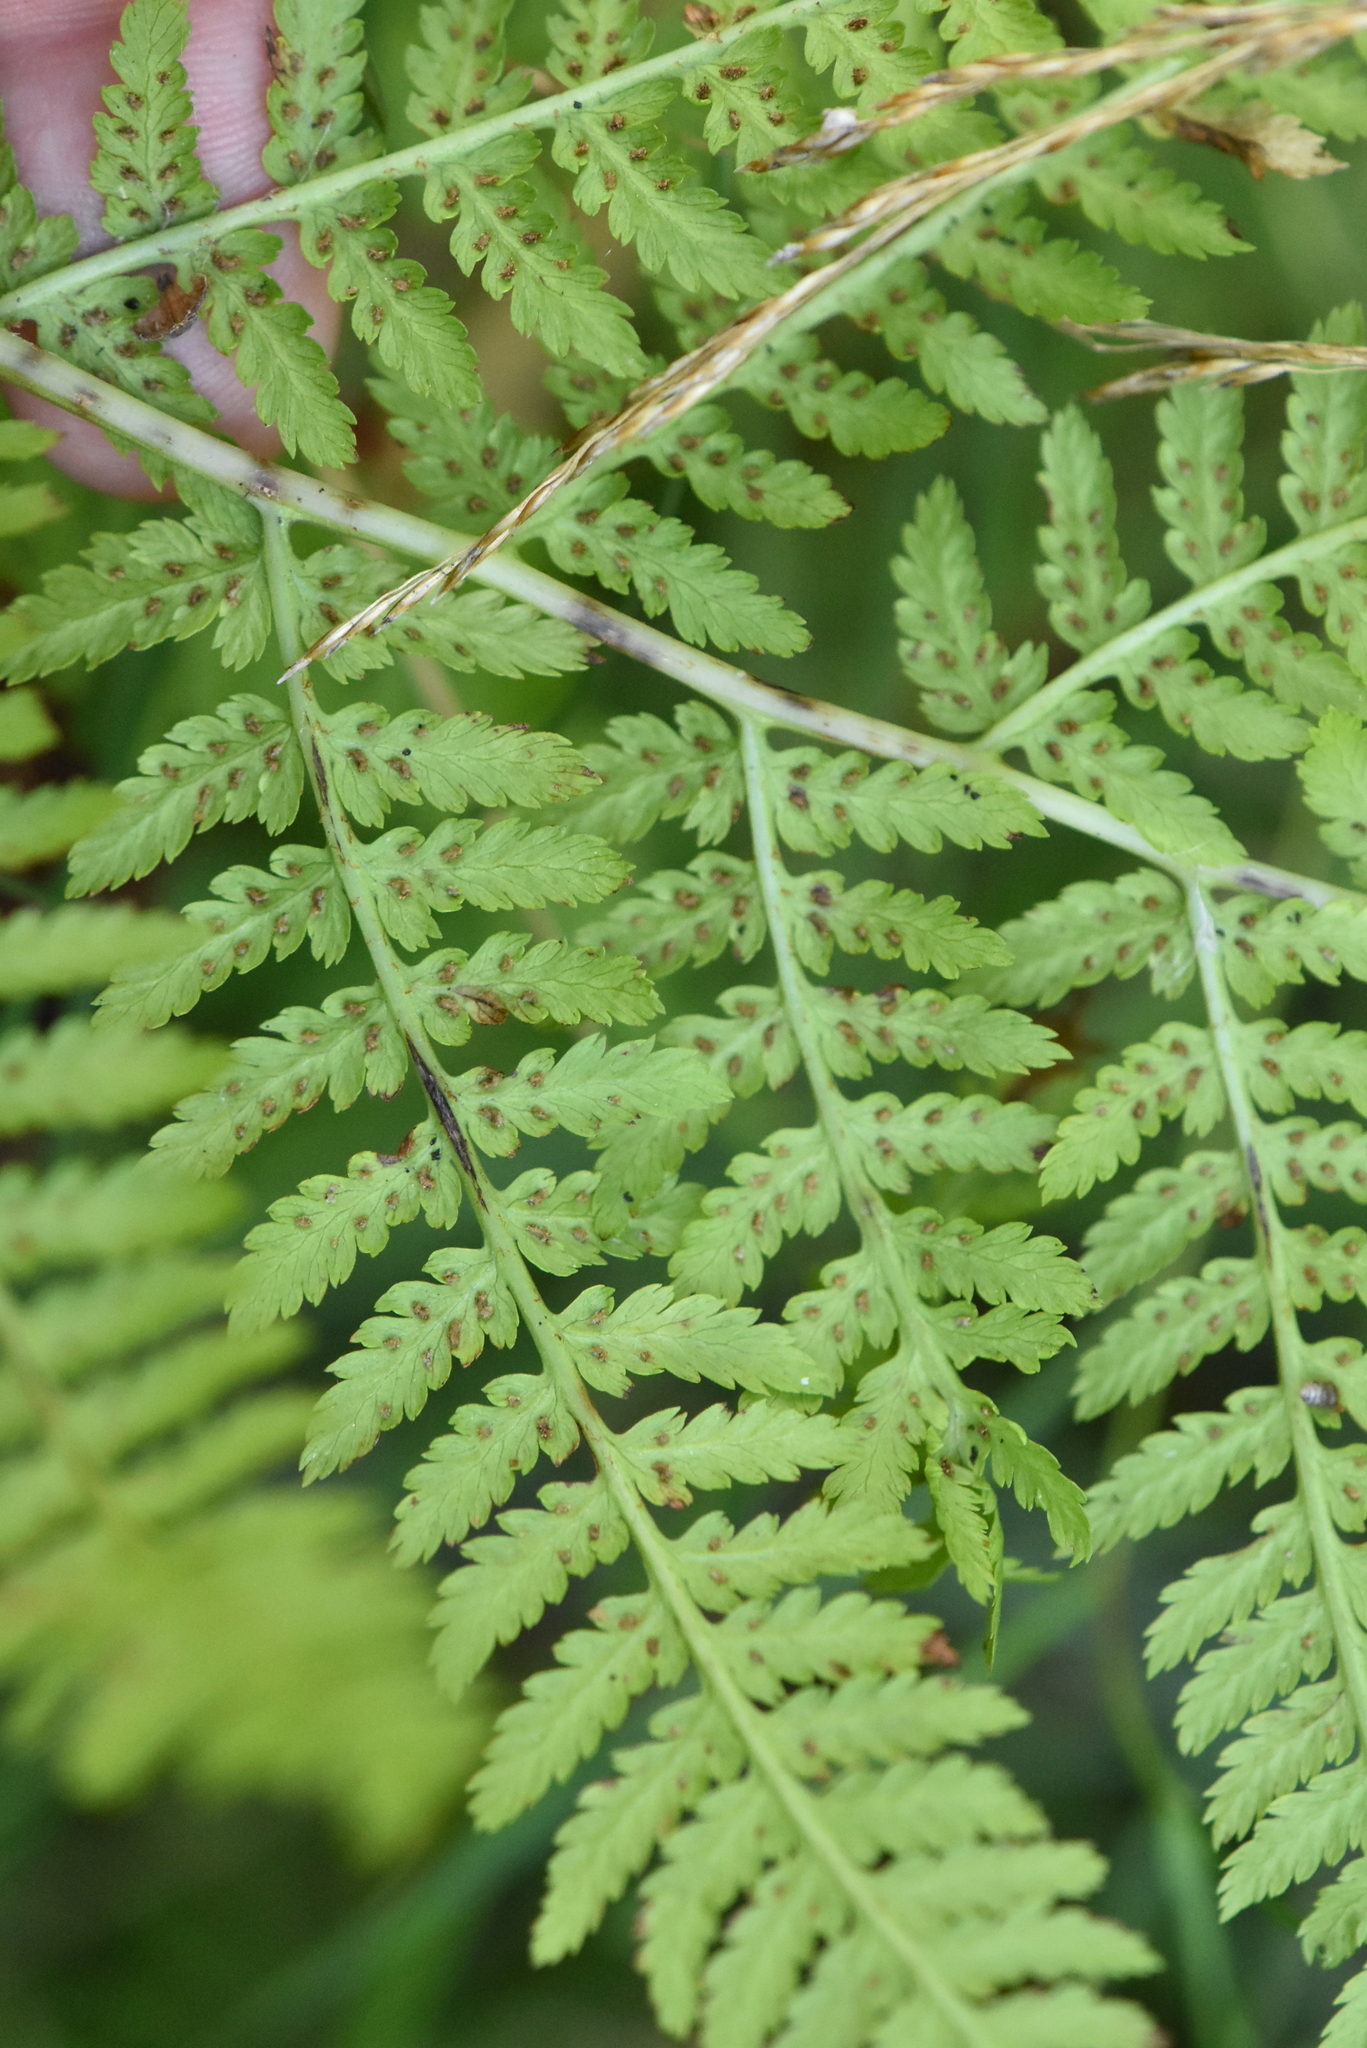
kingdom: Plantae
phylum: Tracheophyta
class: Polypodiopsida
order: Polypodiales
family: Athyriaceae
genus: Athyrium
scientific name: Athyrium filix-femina
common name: Lady fern
